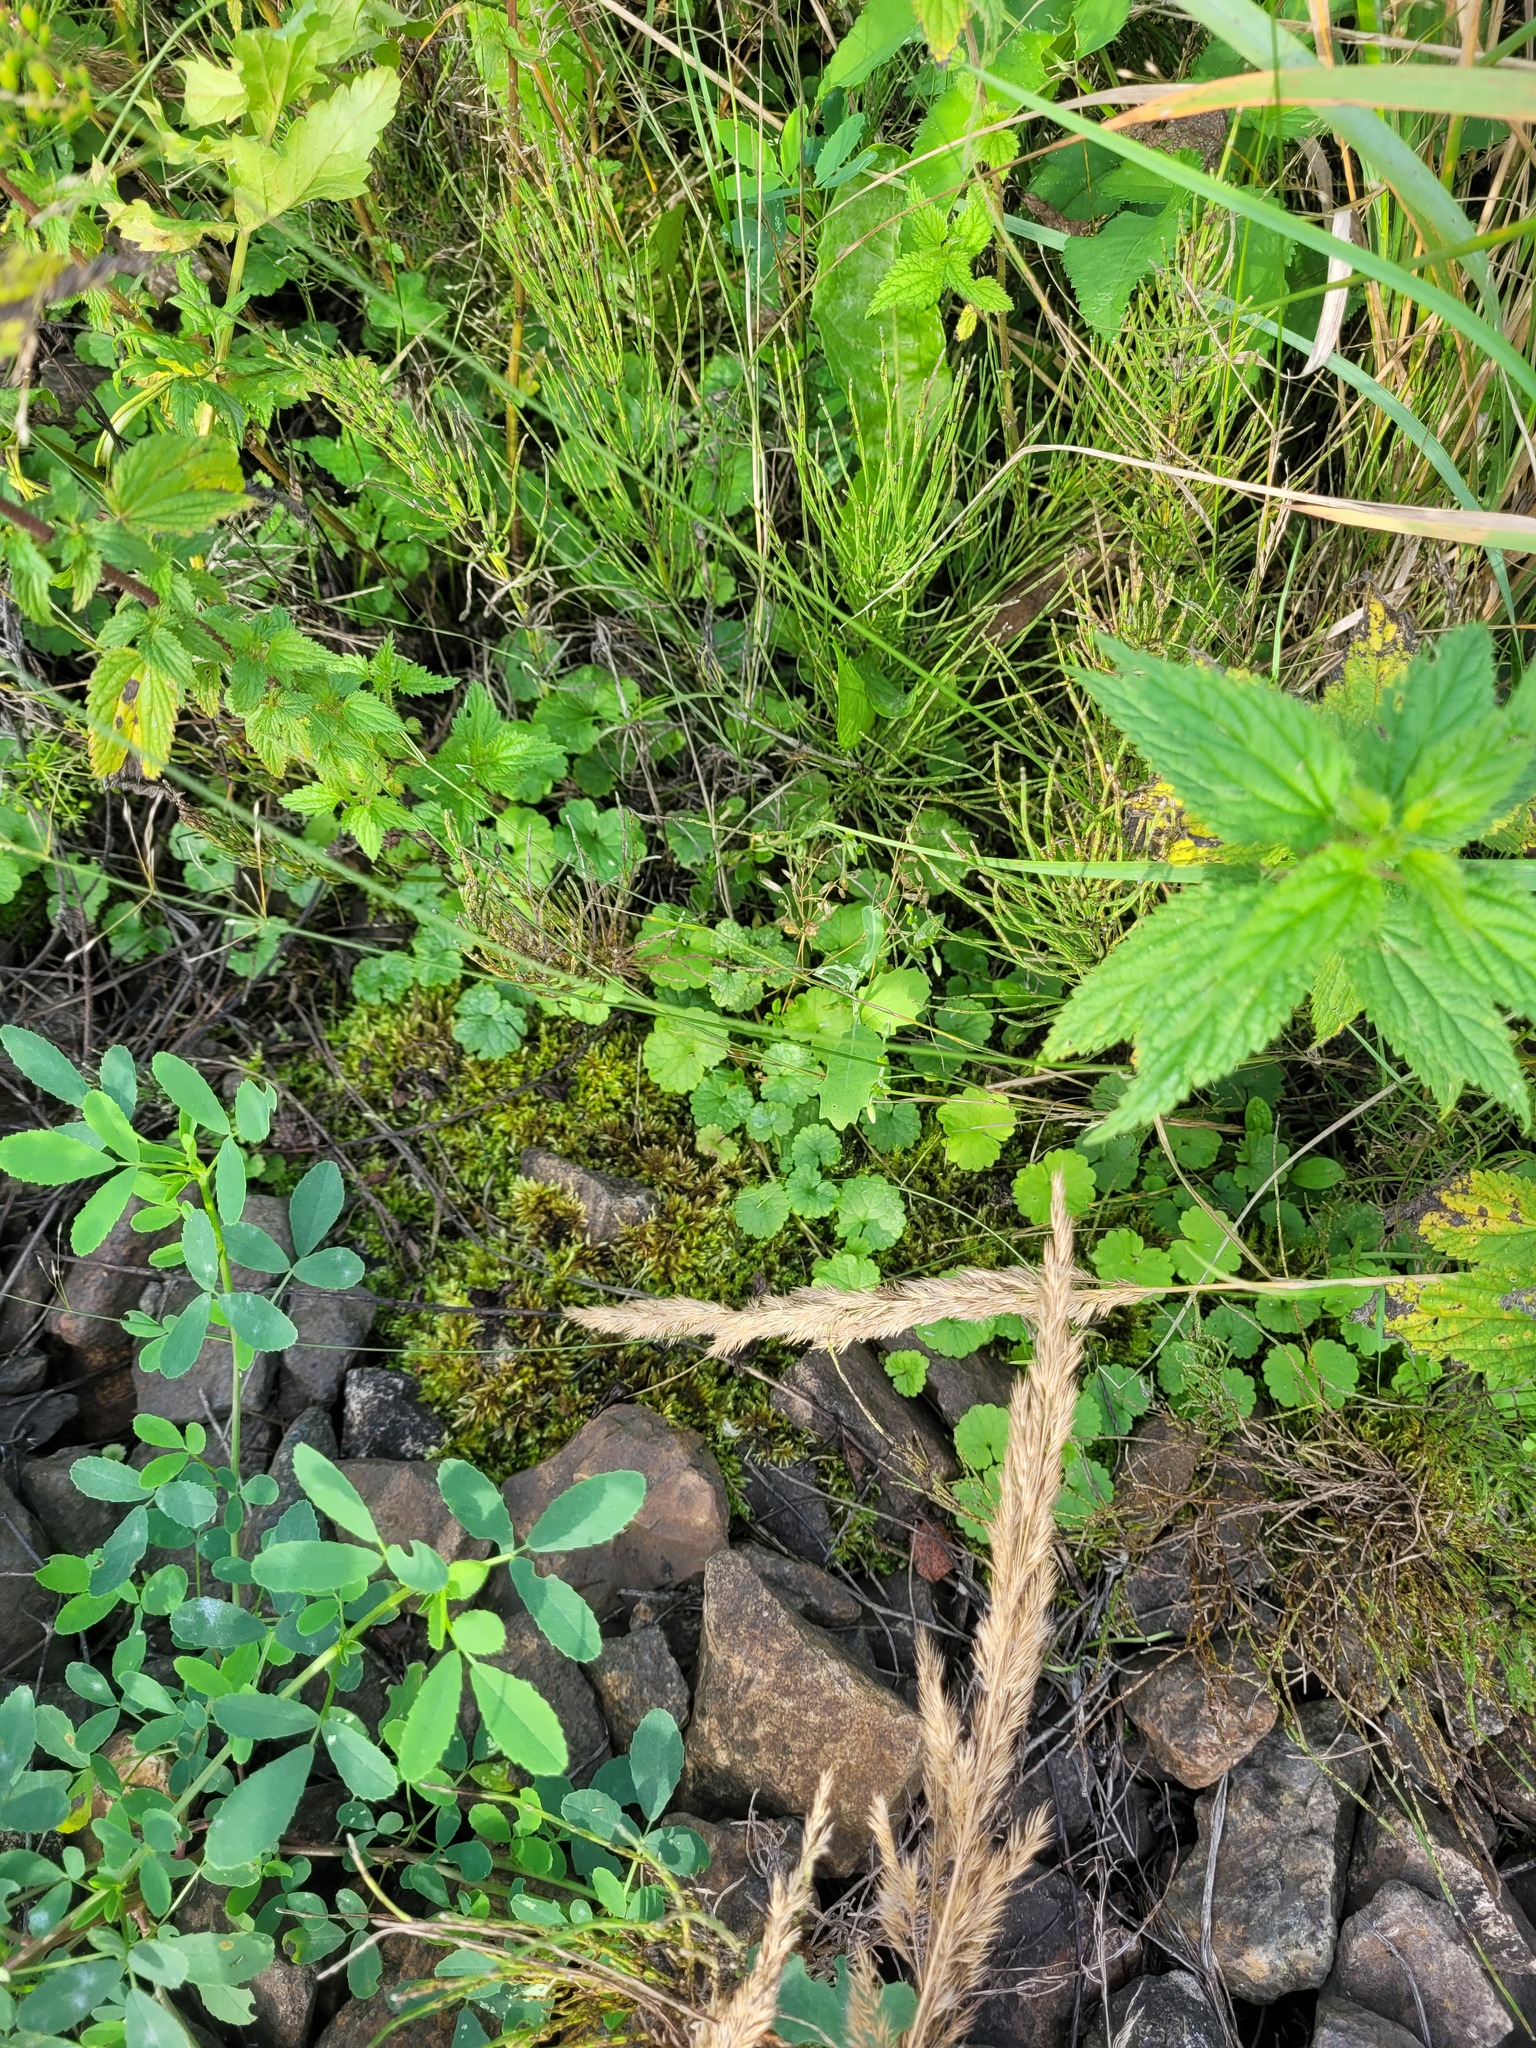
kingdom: Plantae
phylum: Tracheophyta
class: Magnoliopsida
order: Lamiales
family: Lamiaceae
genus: Glechoma
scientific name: Glechoma hederacea
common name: Ground ivy
